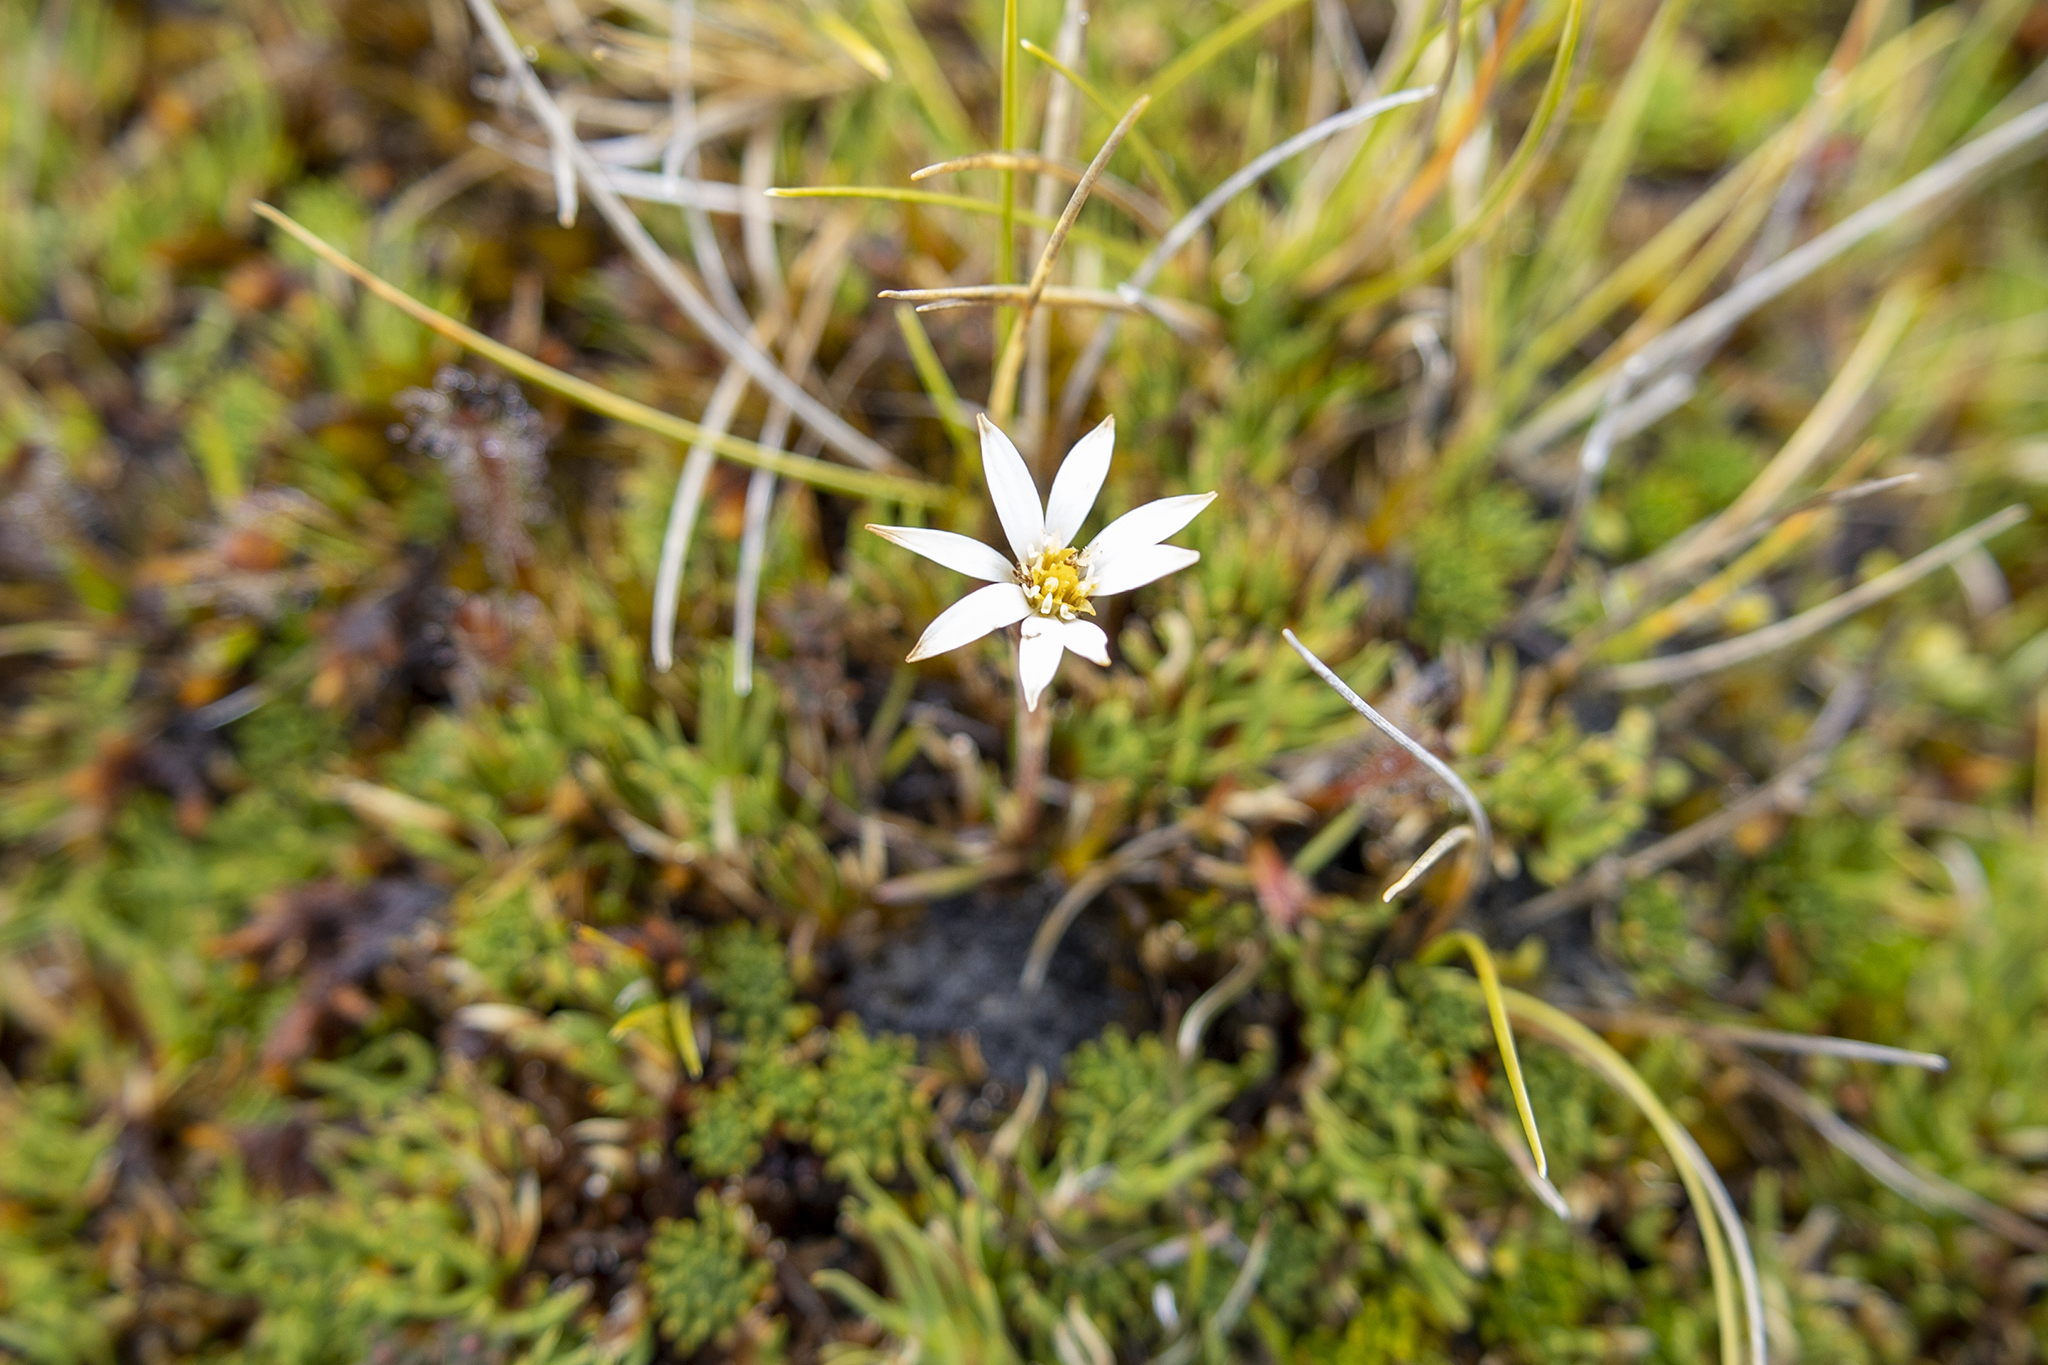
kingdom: Plantae
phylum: Tracheophyta
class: Magnoliopsida
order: Asterales
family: Asteraceae
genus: Celmisia
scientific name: Celmisia alpina
